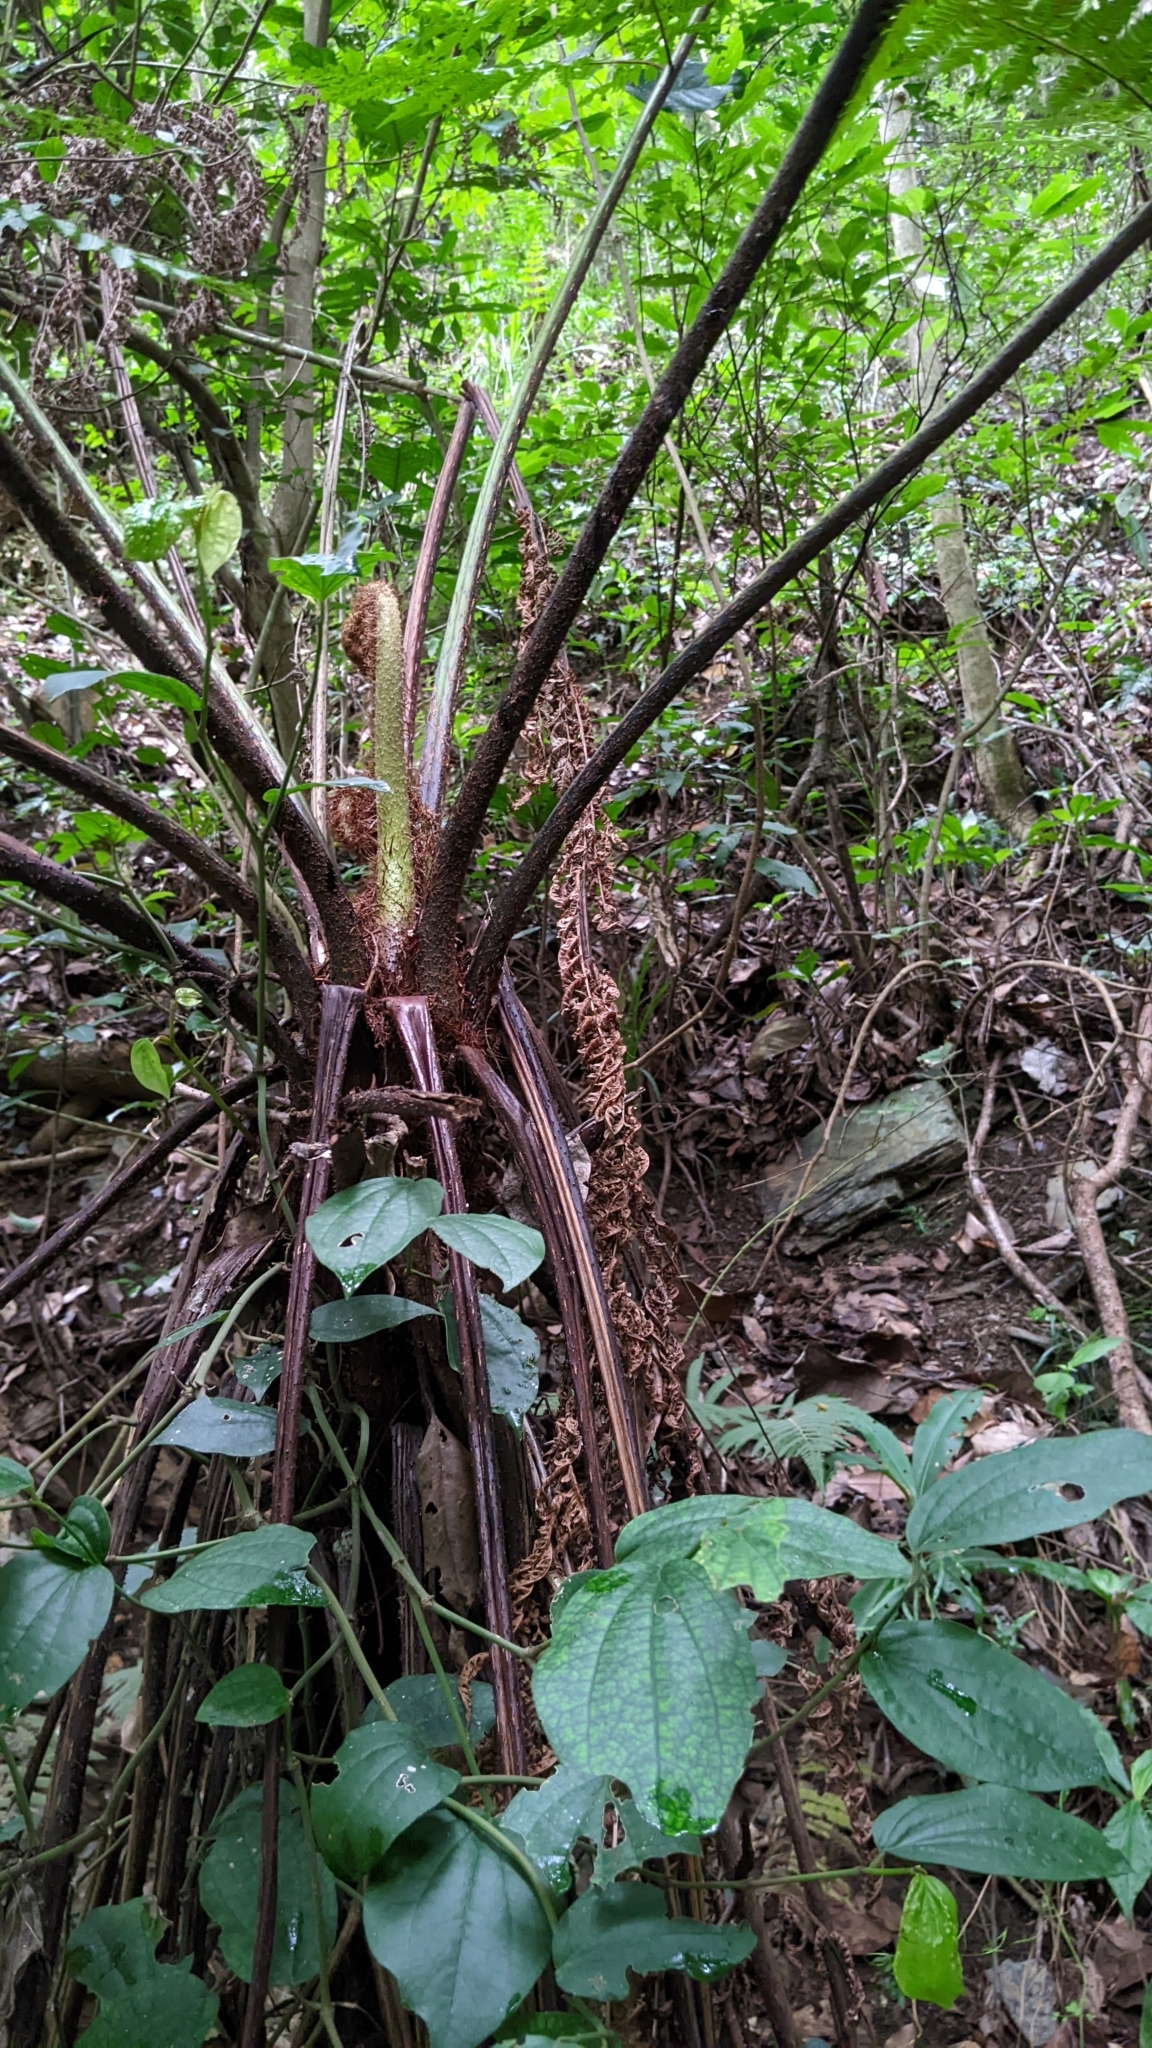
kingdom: Plantae
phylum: Tracheophyta
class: Polypodiopsida
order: Cyatheales
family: Cyatheaceae
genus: Alsophila
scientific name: Alsophila spinulosa
